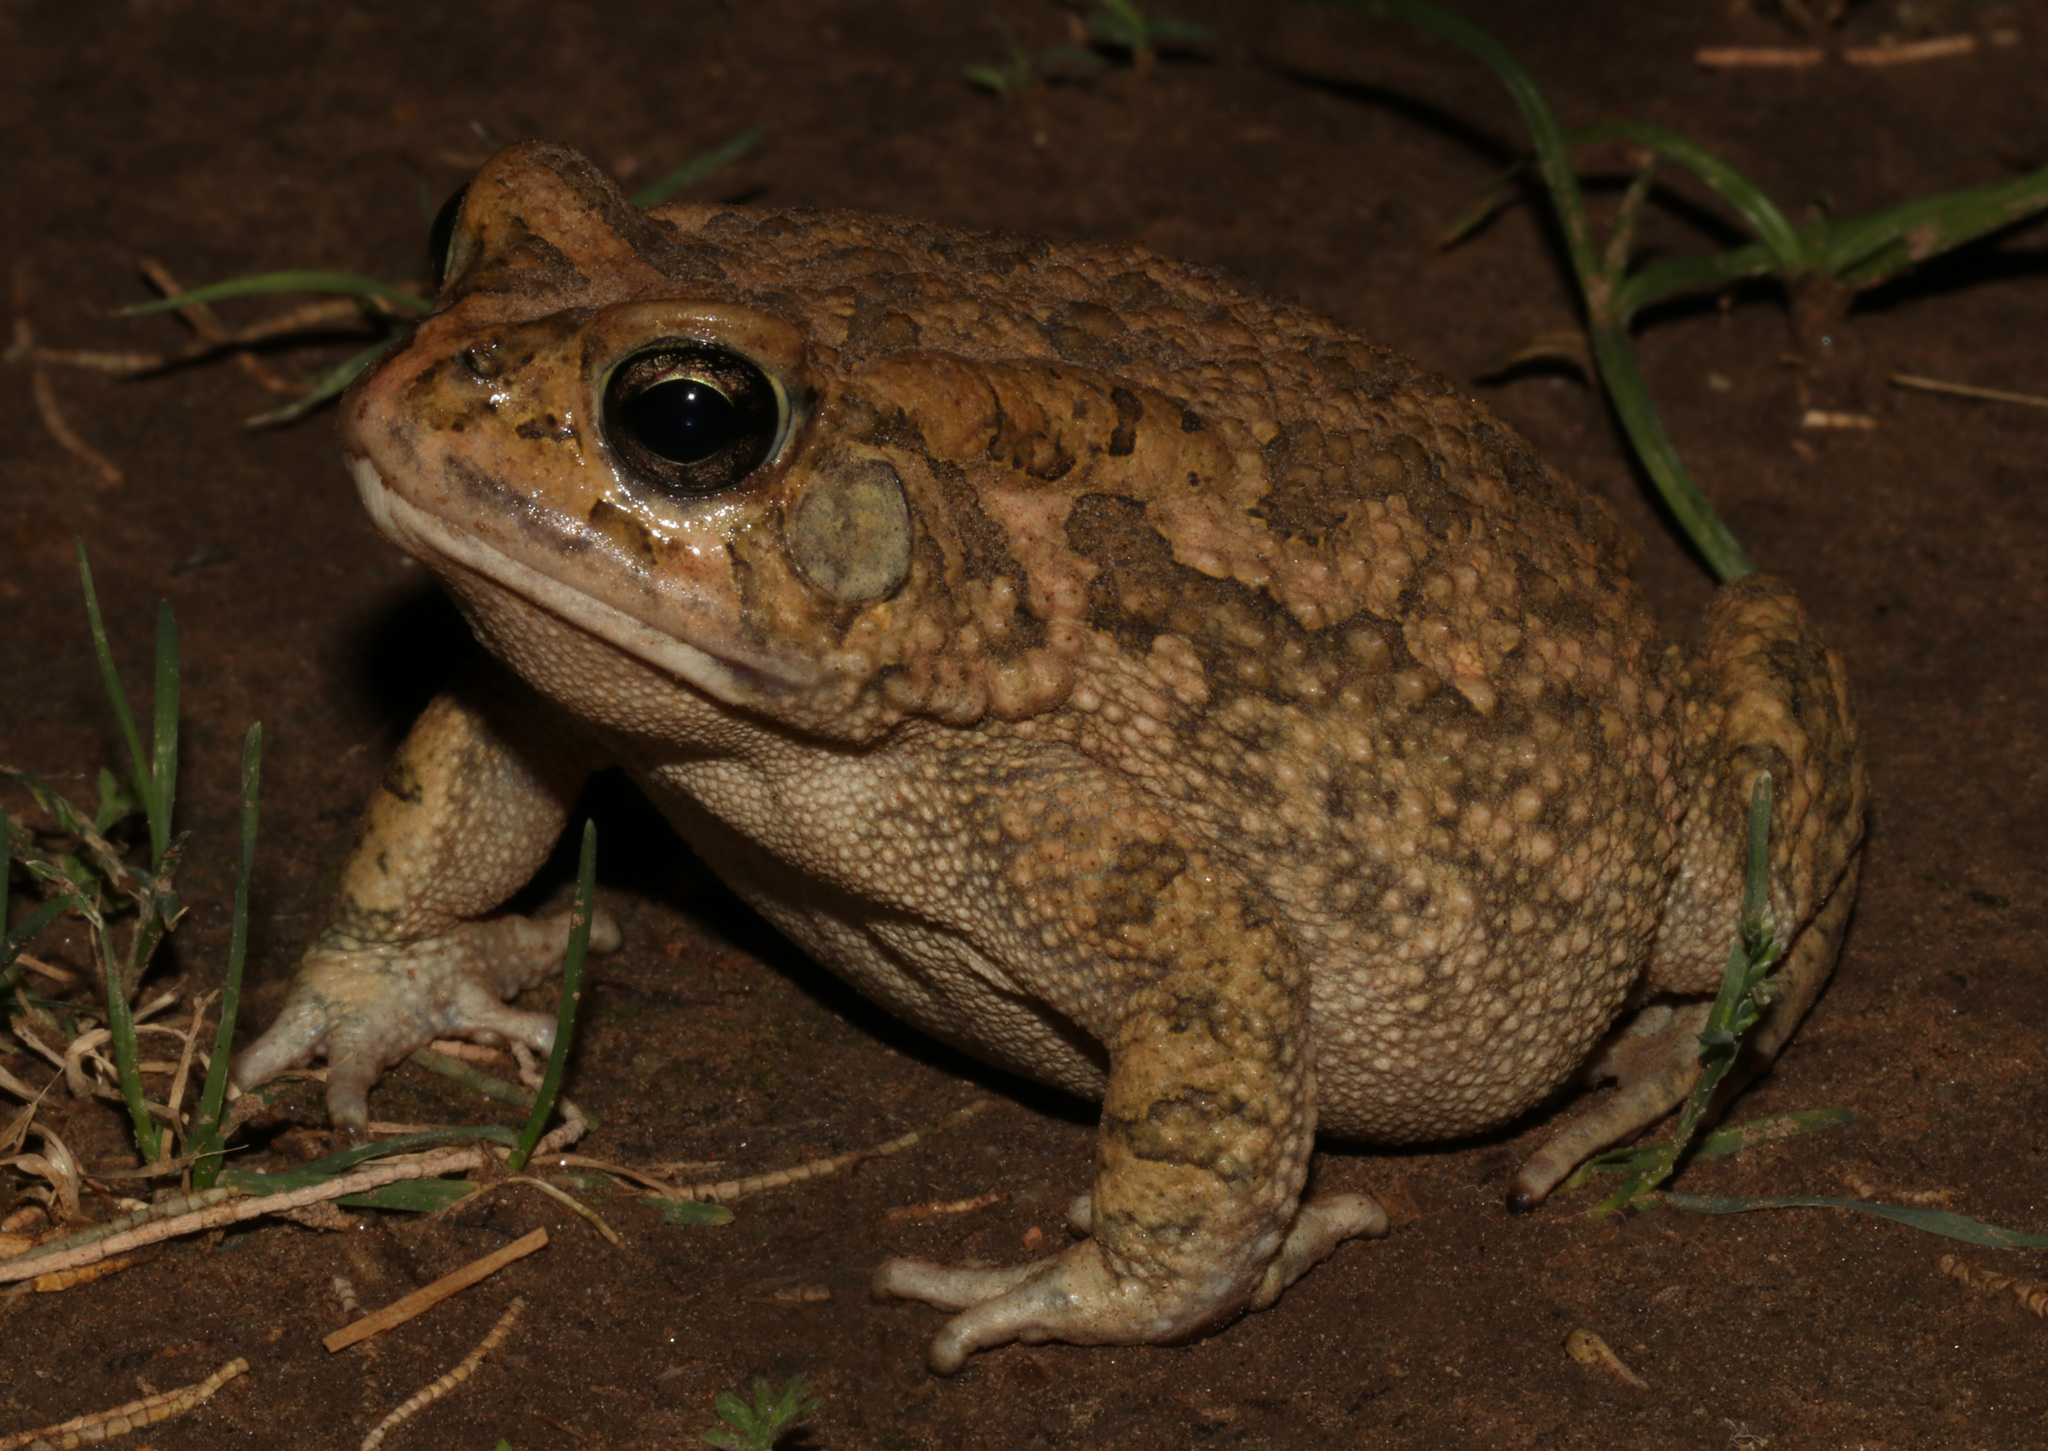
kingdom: Animalia
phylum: Chordata
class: Amphibia
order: Anura
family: Bufonidae
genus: Sclerophrys
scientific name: Sclerophrys gutturalis
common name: African common toad
